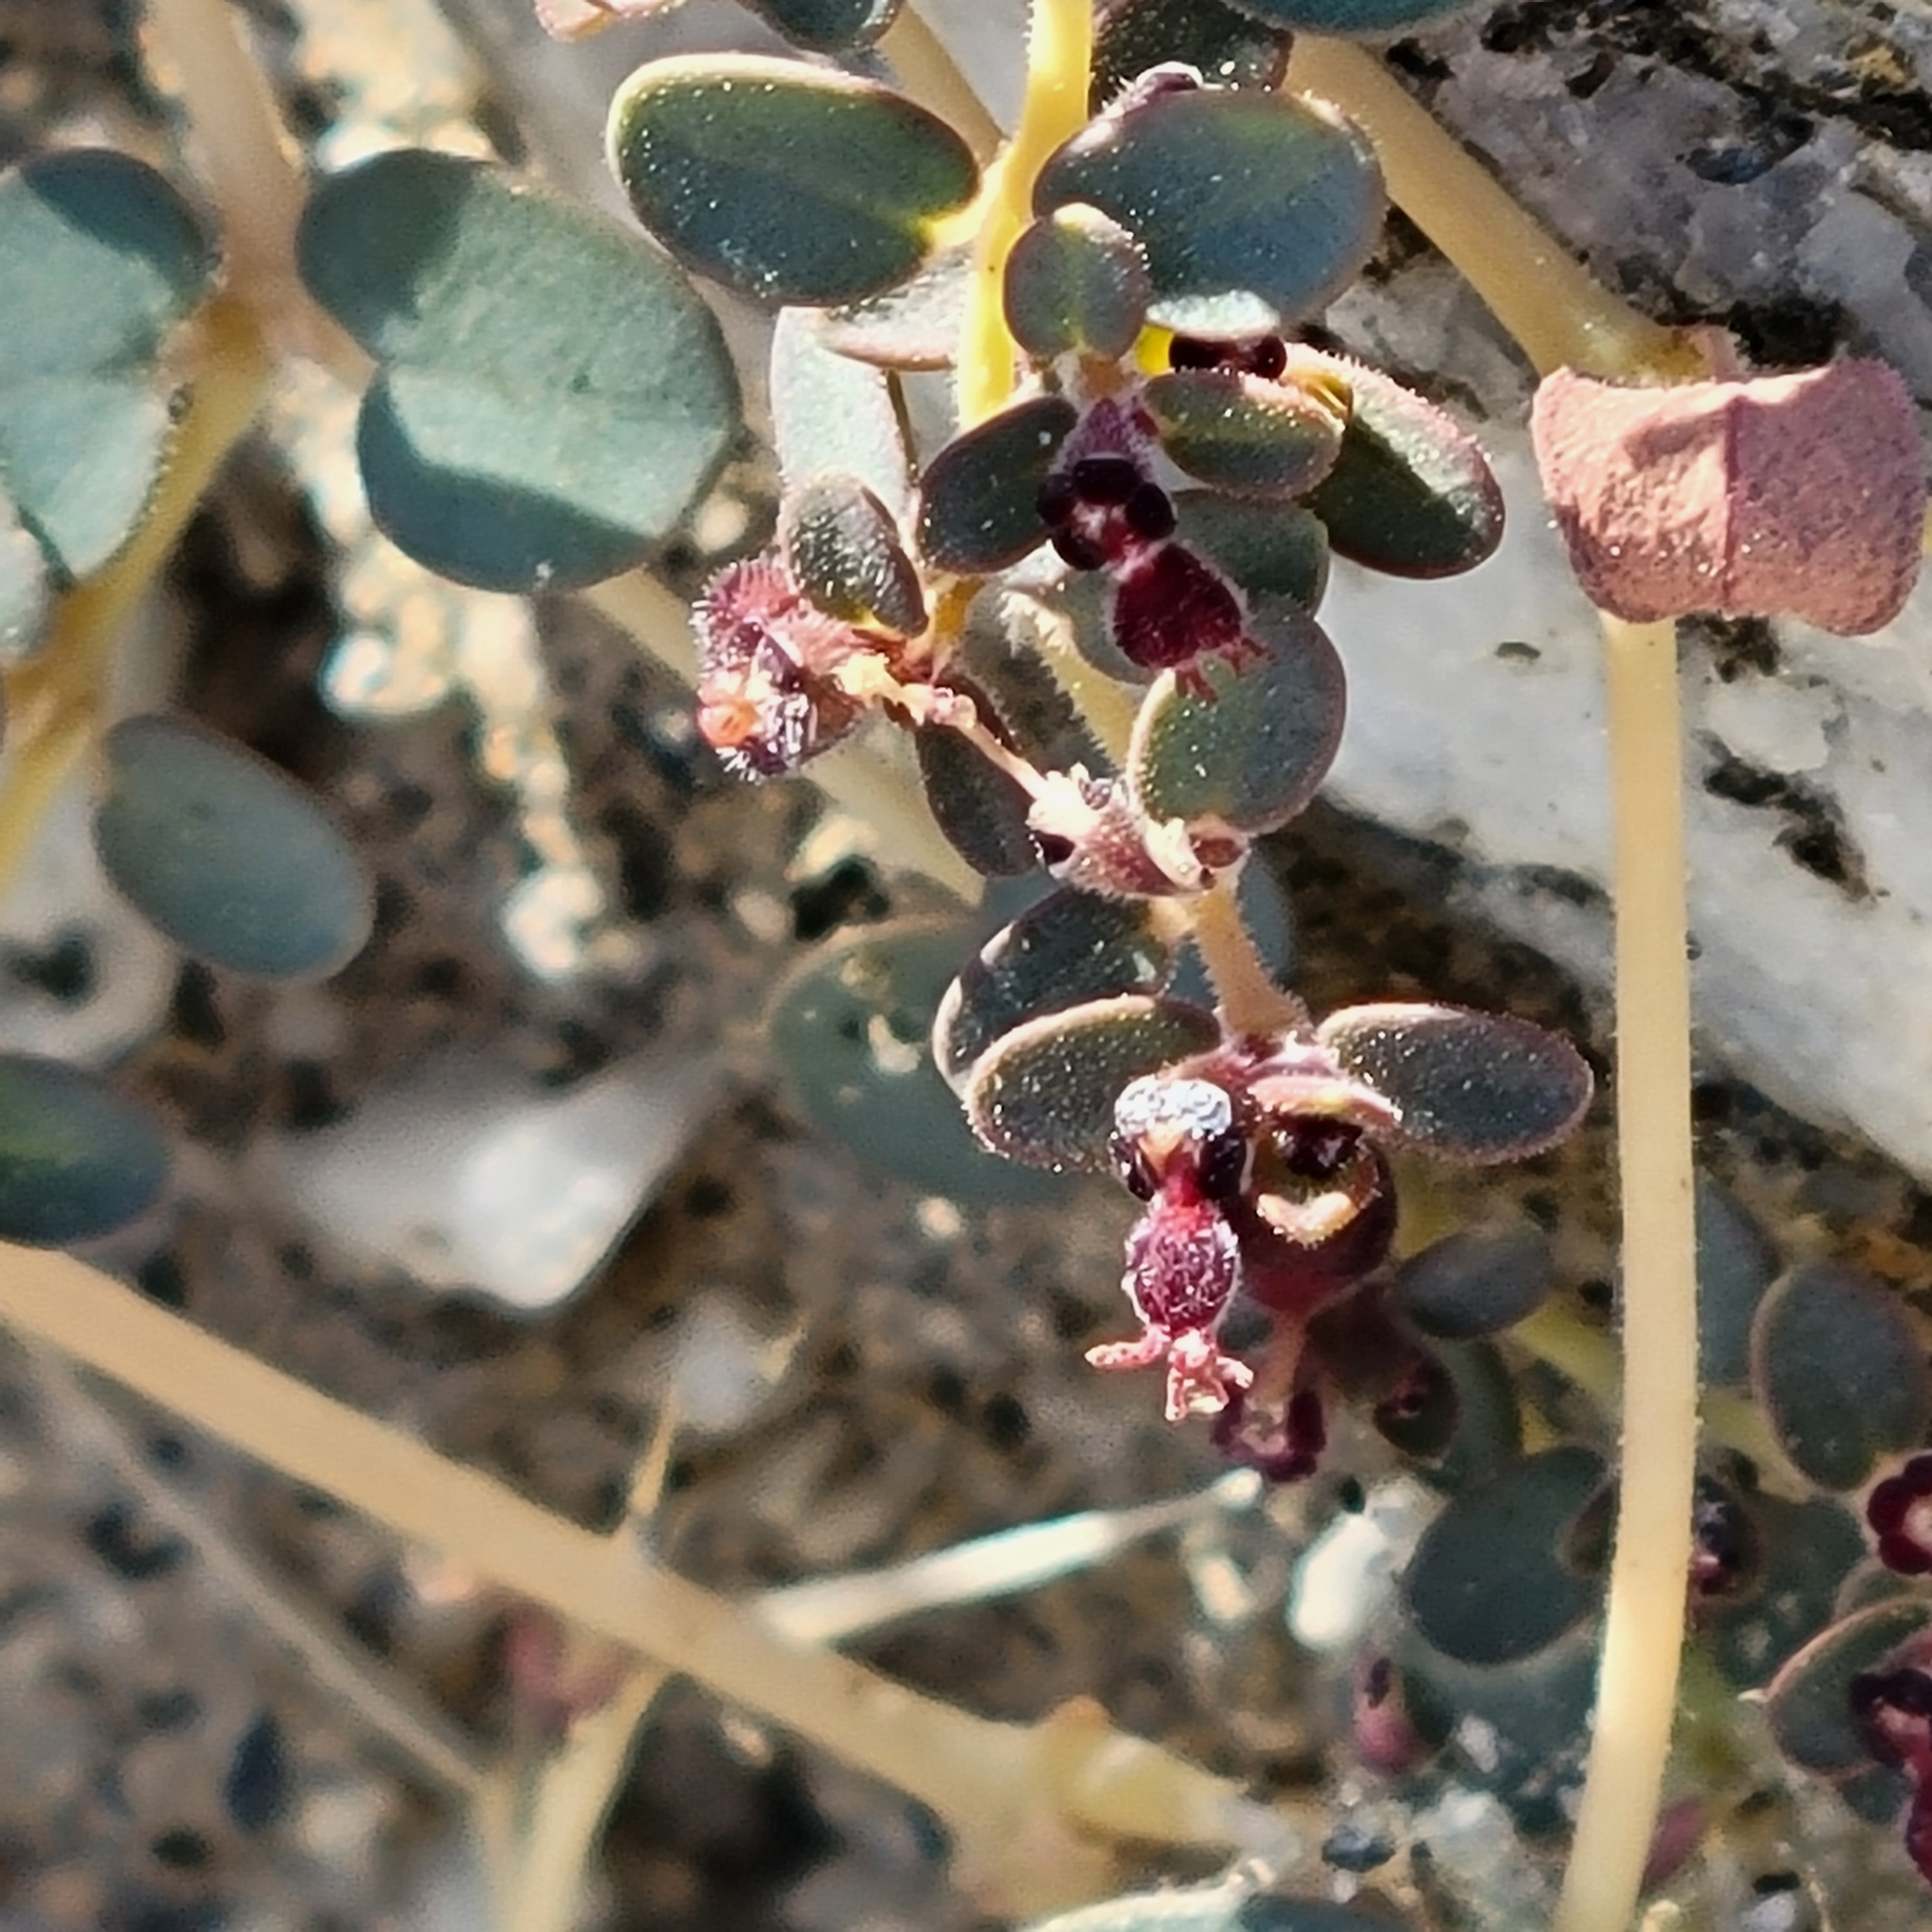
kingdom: Plantae
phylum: Tracheophyta
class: Magnoliopsida
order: Malpighiales
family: Euphorbiaceae
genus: Euphorbia
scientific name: Euphorbia polycarpa
